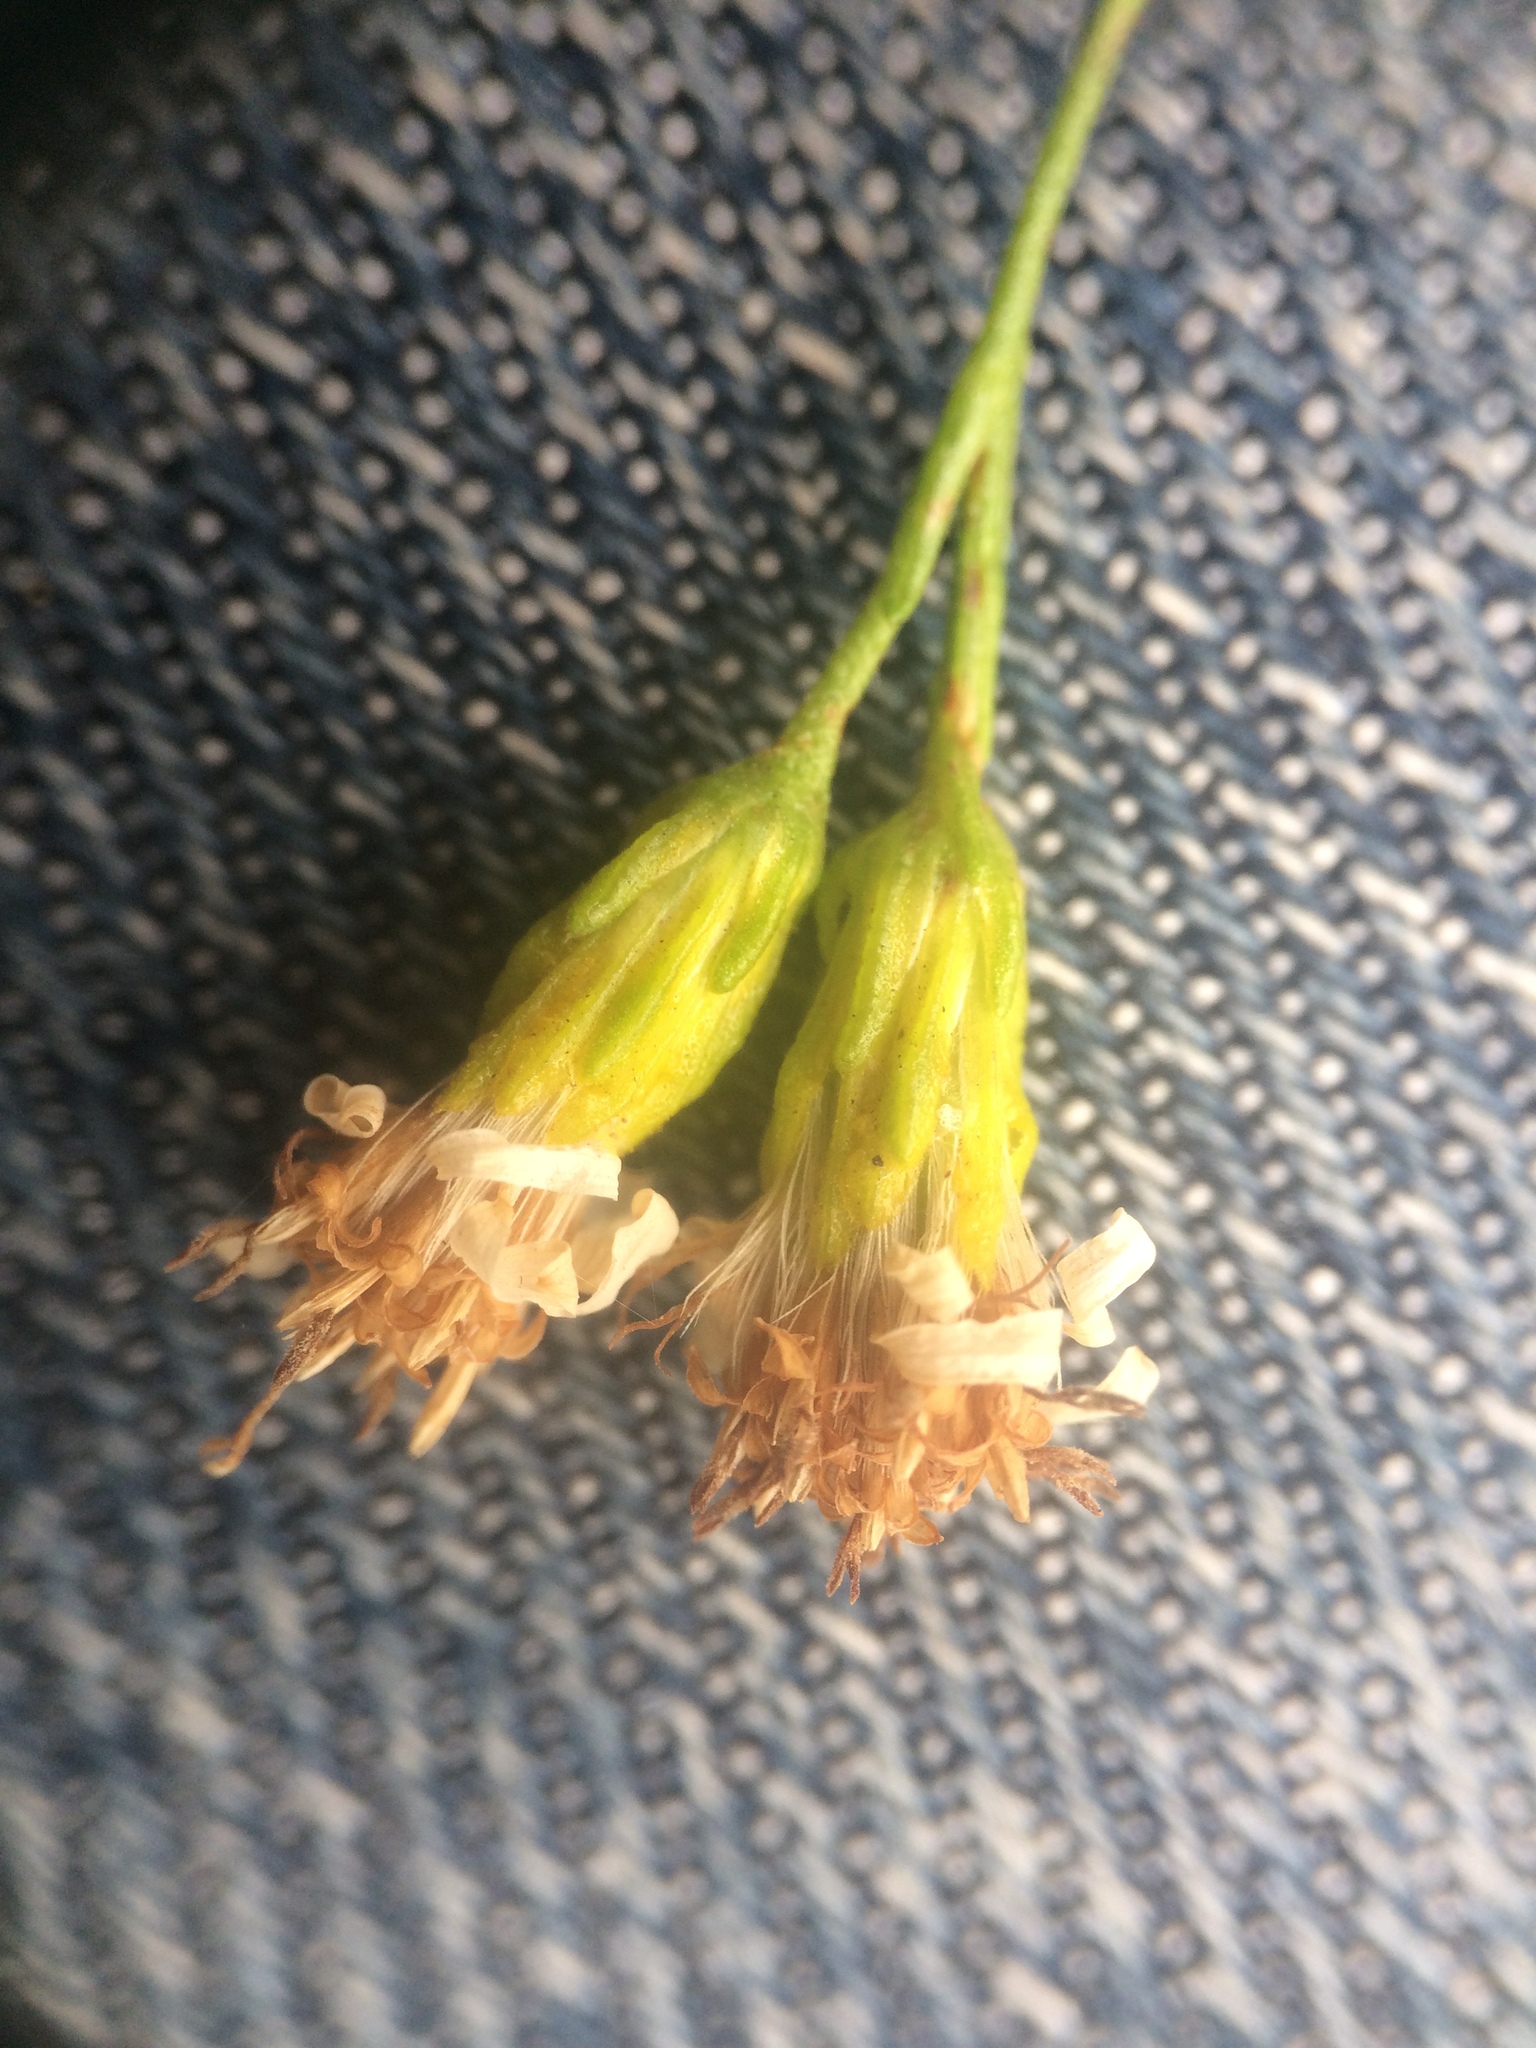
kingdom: Plantae
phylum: Tracheophyta
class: Magnoliopsida
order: Asterales
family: Asteraceae
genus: Solidago
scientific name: Solidago racemosa
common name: Lake ontario goldenrod
